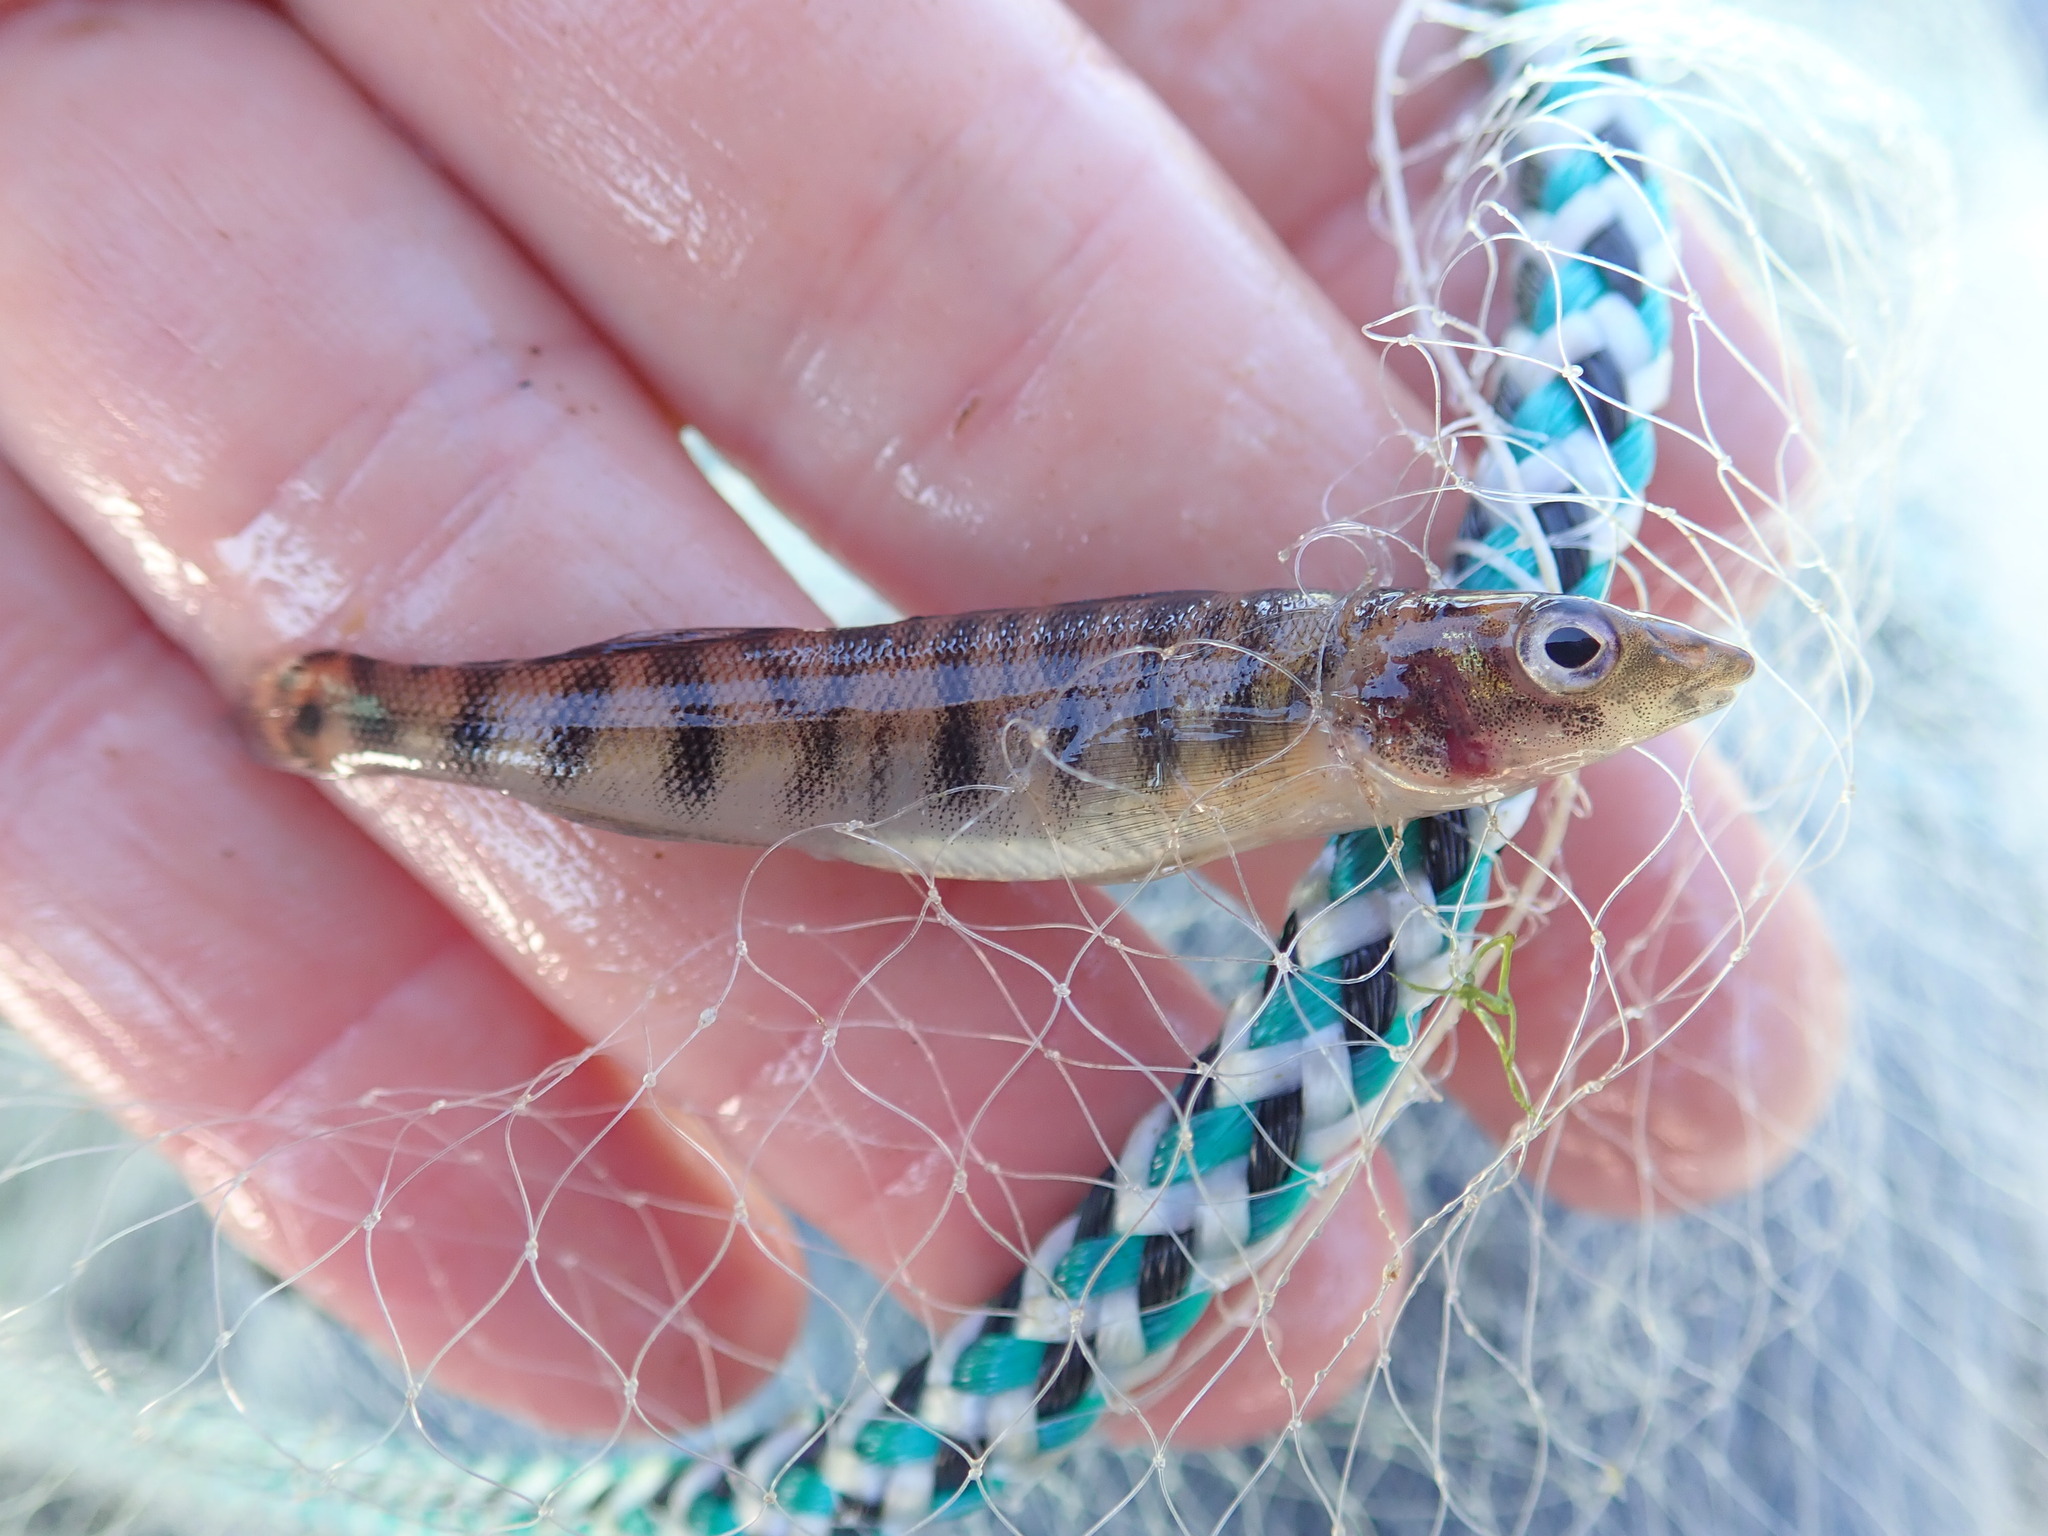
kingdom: Animalia
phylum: Chordata
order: Perciformes
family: Percidae
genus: Percina
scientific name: Percina caprodes
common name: Logperch
